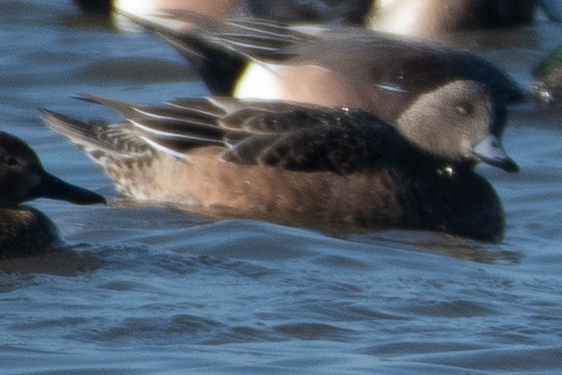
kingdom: Animalia
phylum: Chordata
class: Aves
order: Anseriformes
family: Anatidae
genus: Mareca
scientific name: Mareca americana
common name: American wigeon
